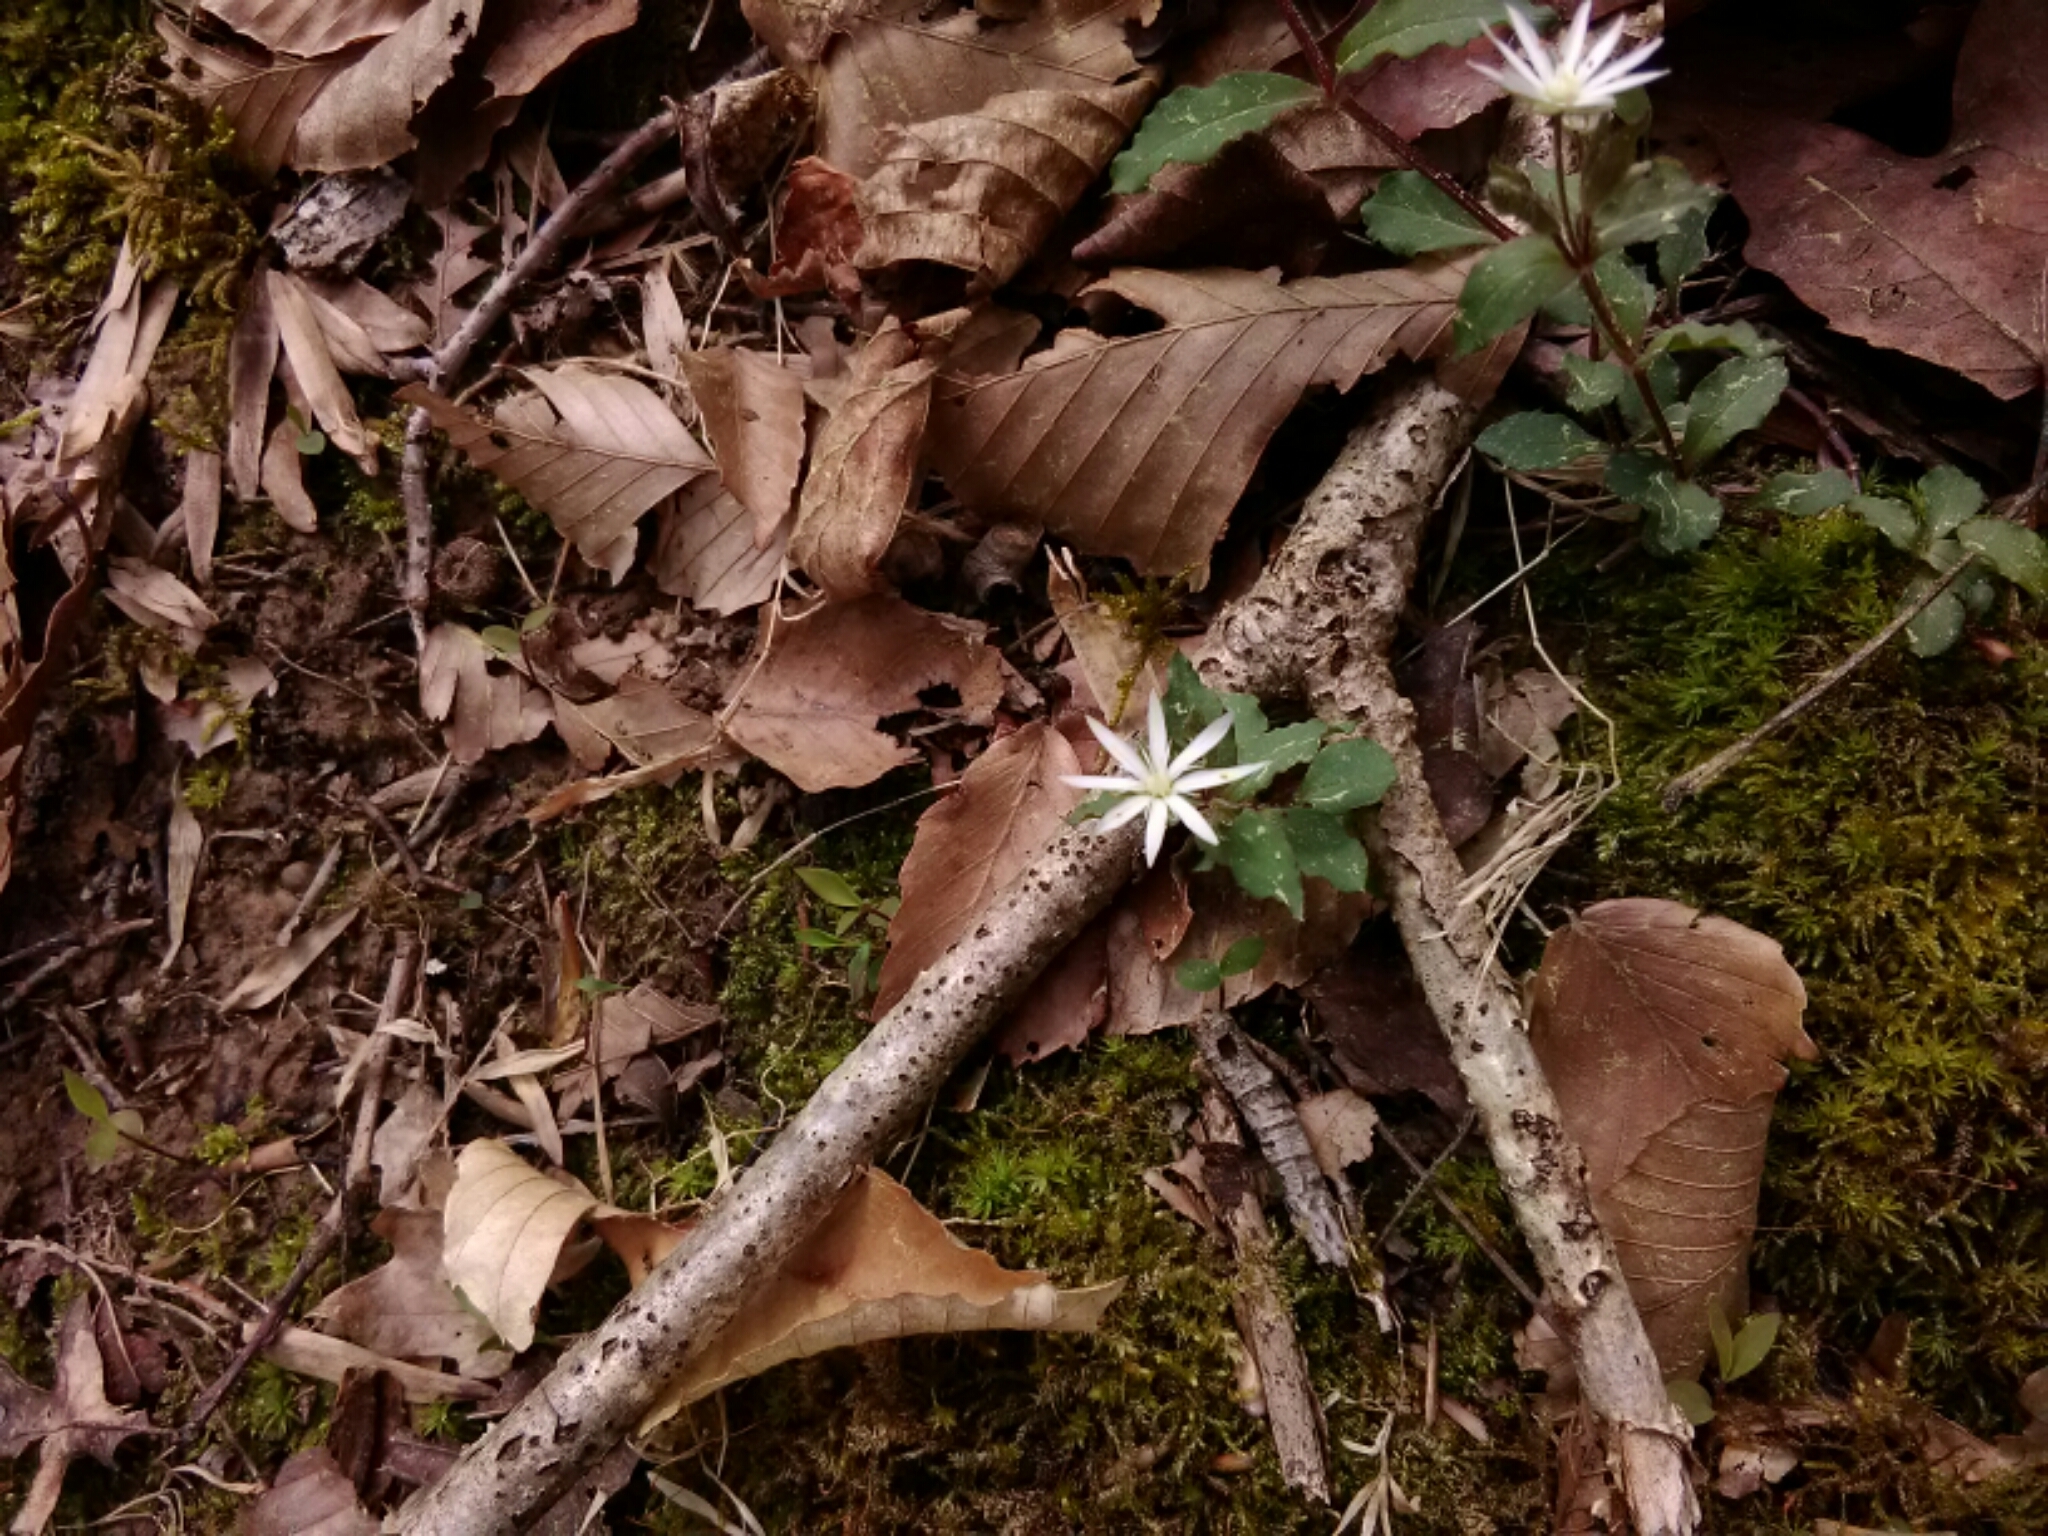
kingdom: Plantae
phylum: Tracheophyta
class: Magnoliopsida
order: Caryophyllales
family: Caryophyllaceae
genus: Stellaria
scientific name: Stellaria pubera
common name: Star chickweed
